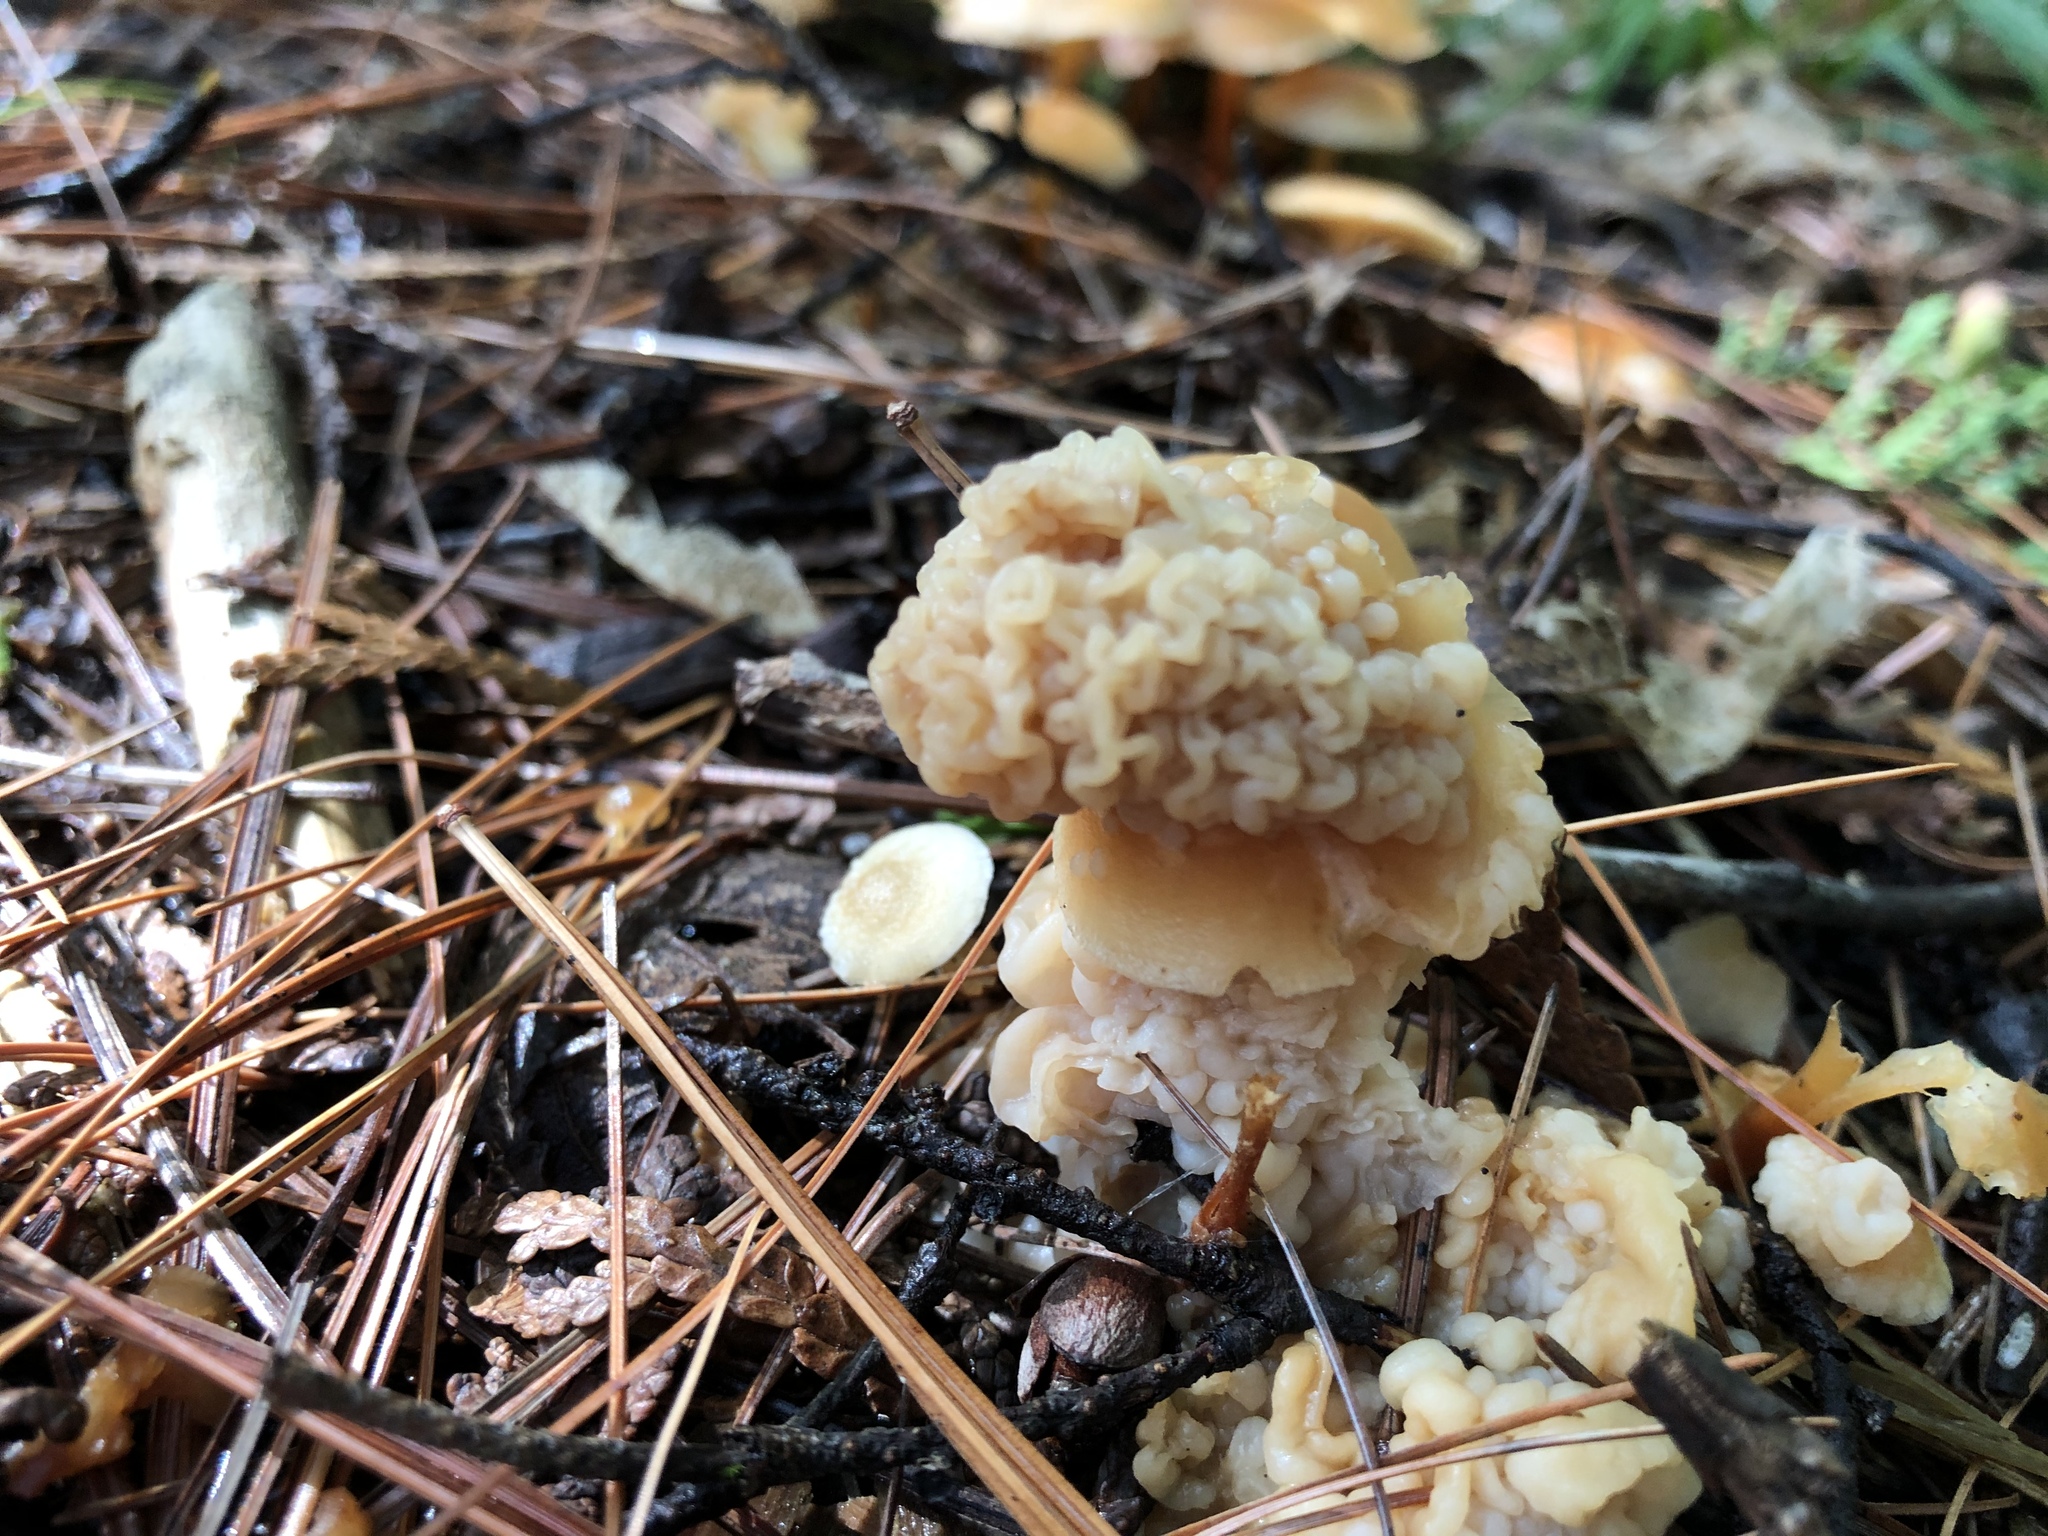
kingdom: Fungi
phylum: Basidiomycota
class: Tremellomycetes
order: Filobasidiales
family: Filobasidiaceae
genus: Syzygospora
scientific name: Syzygospora mycetophila
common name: Collybia clouds
